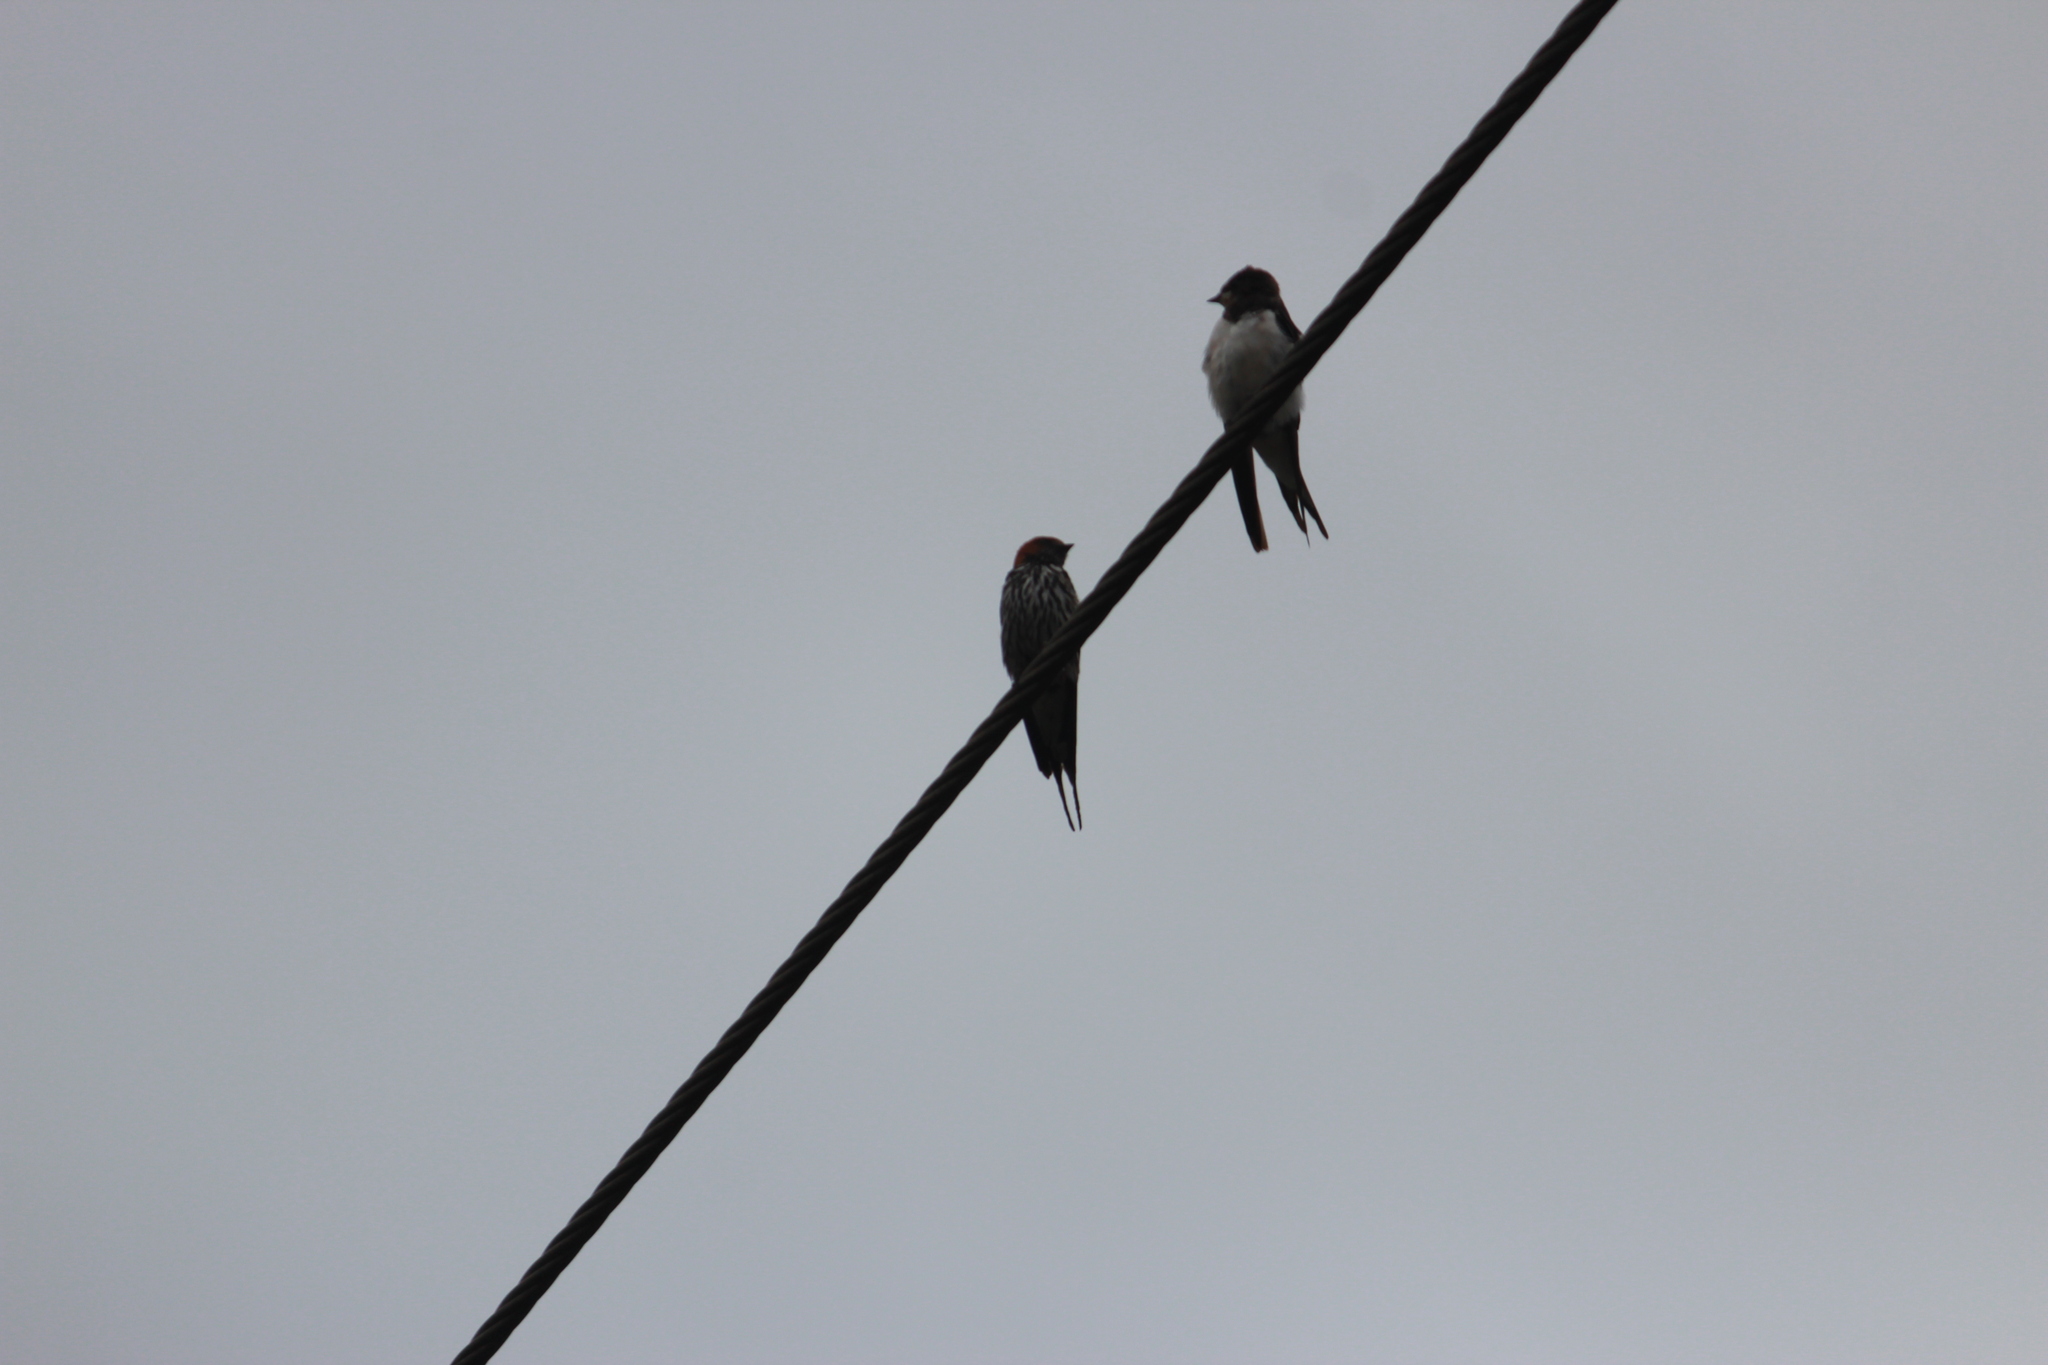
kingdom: Animalia
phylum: Chordata
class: Aves
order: Passeriformes
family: Hirundinidae
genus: Cecropis
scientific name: Cecropis abyssinica
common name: Lesser striped-swallow
